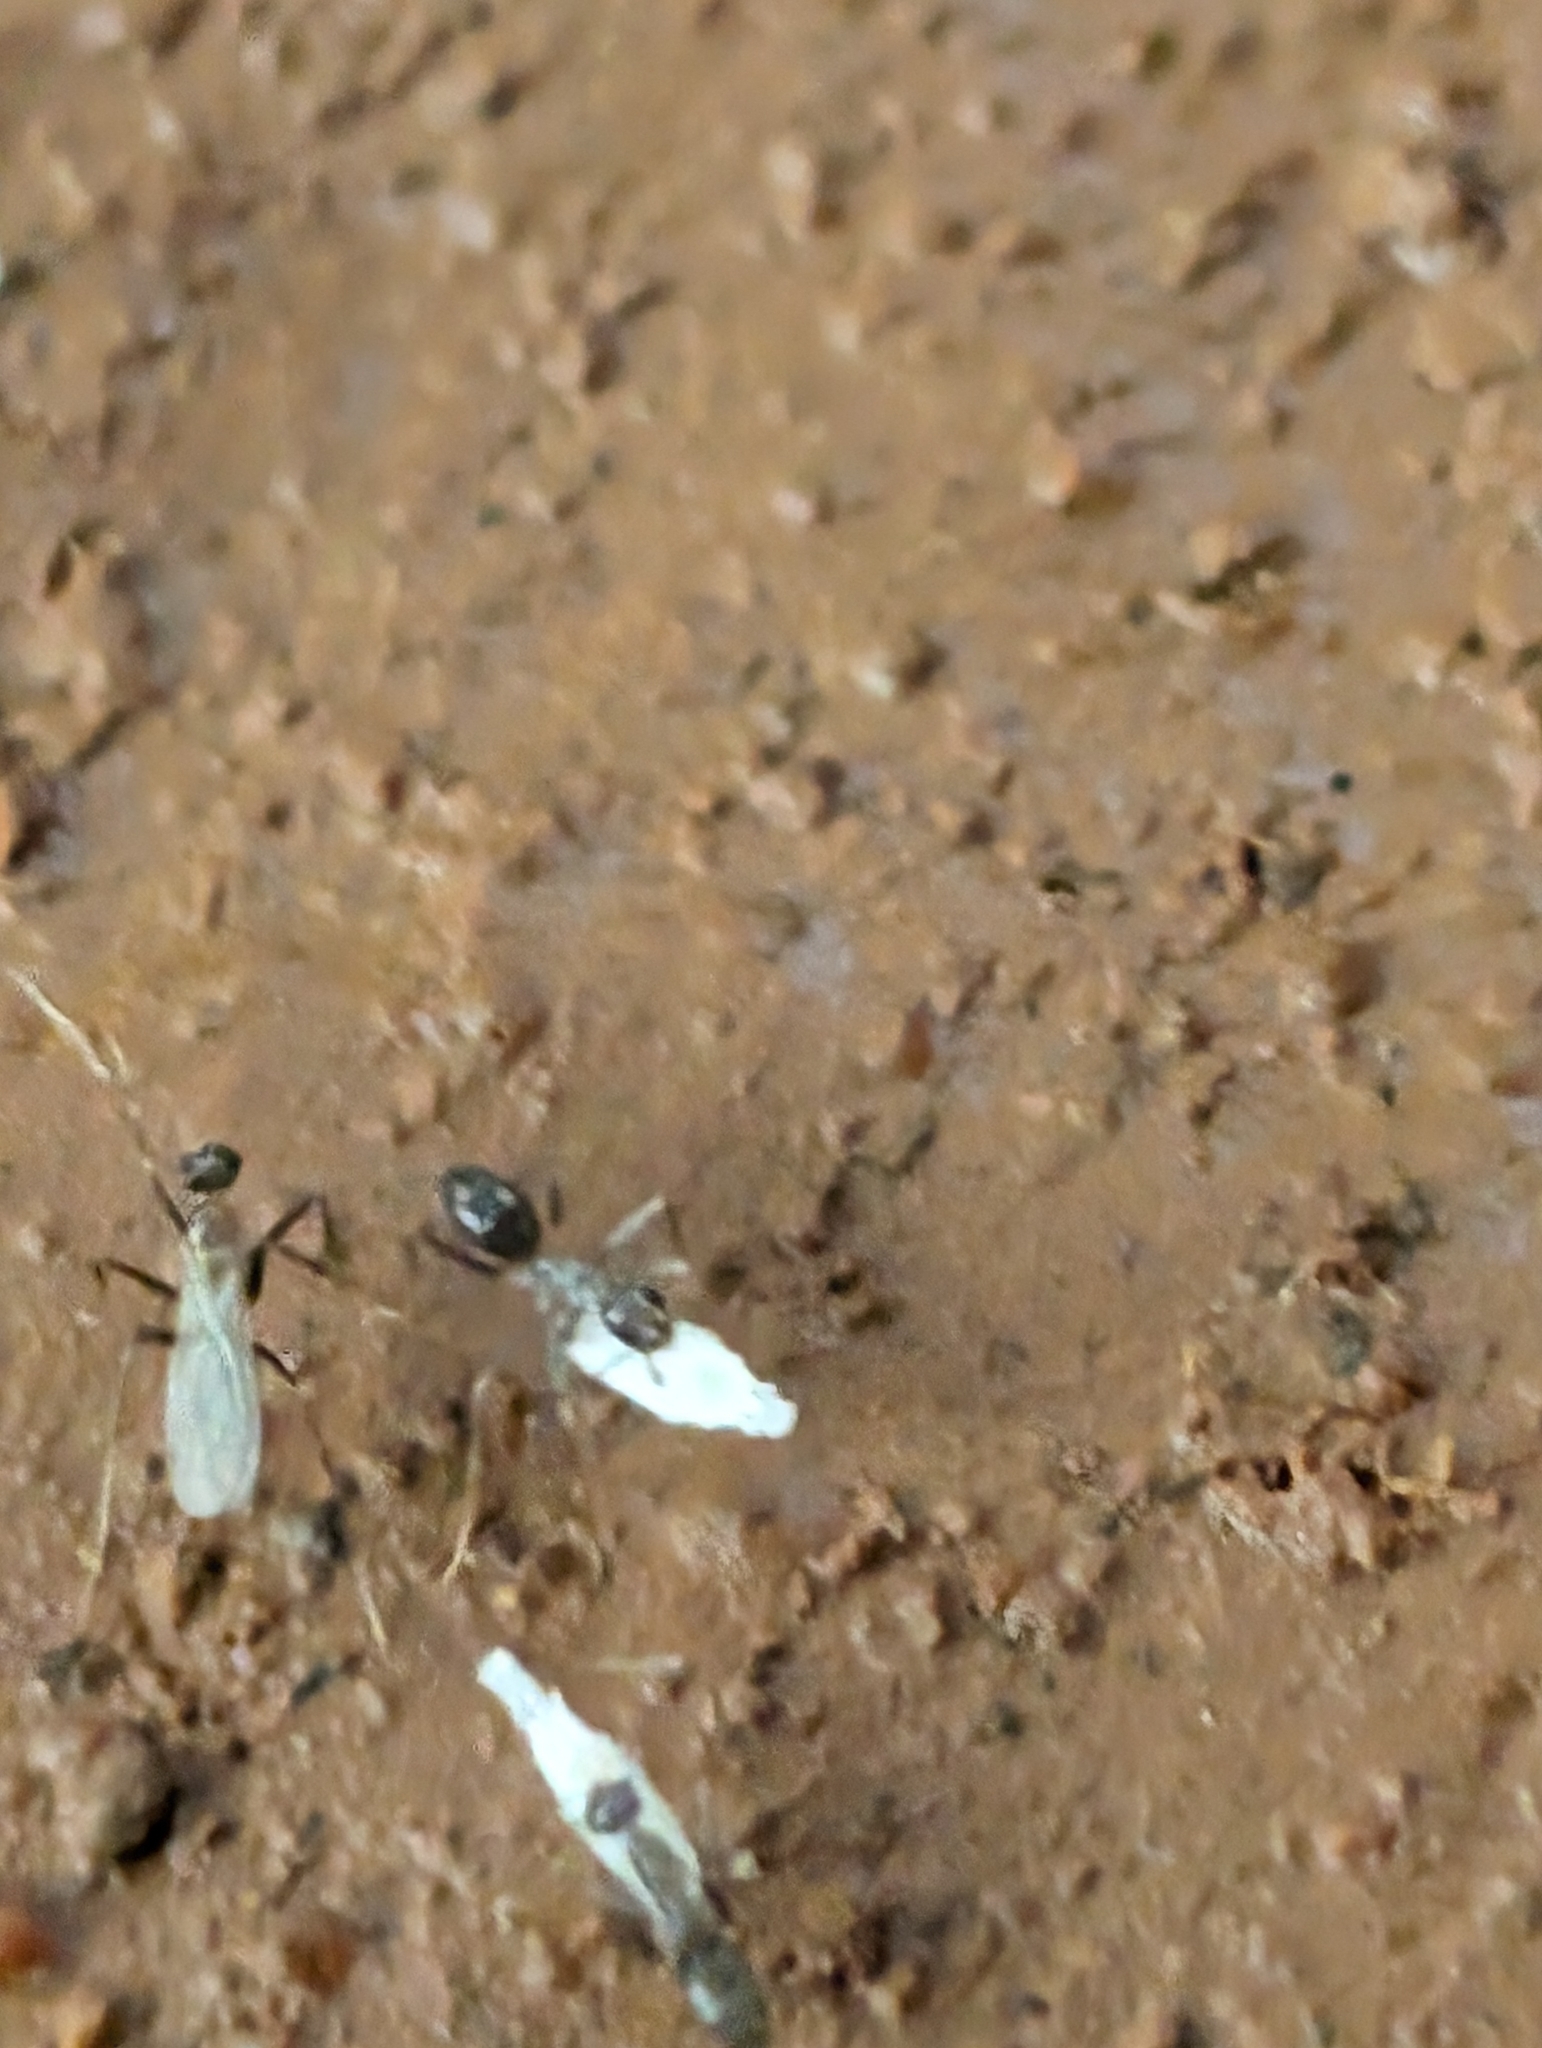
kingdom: Animalia
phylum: Arthropoda
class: Insecta
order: Hymenoptera
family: Formicidae
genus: Paratrechina
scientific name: Paratrechina longicornis
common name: Longhorned crazy ant
